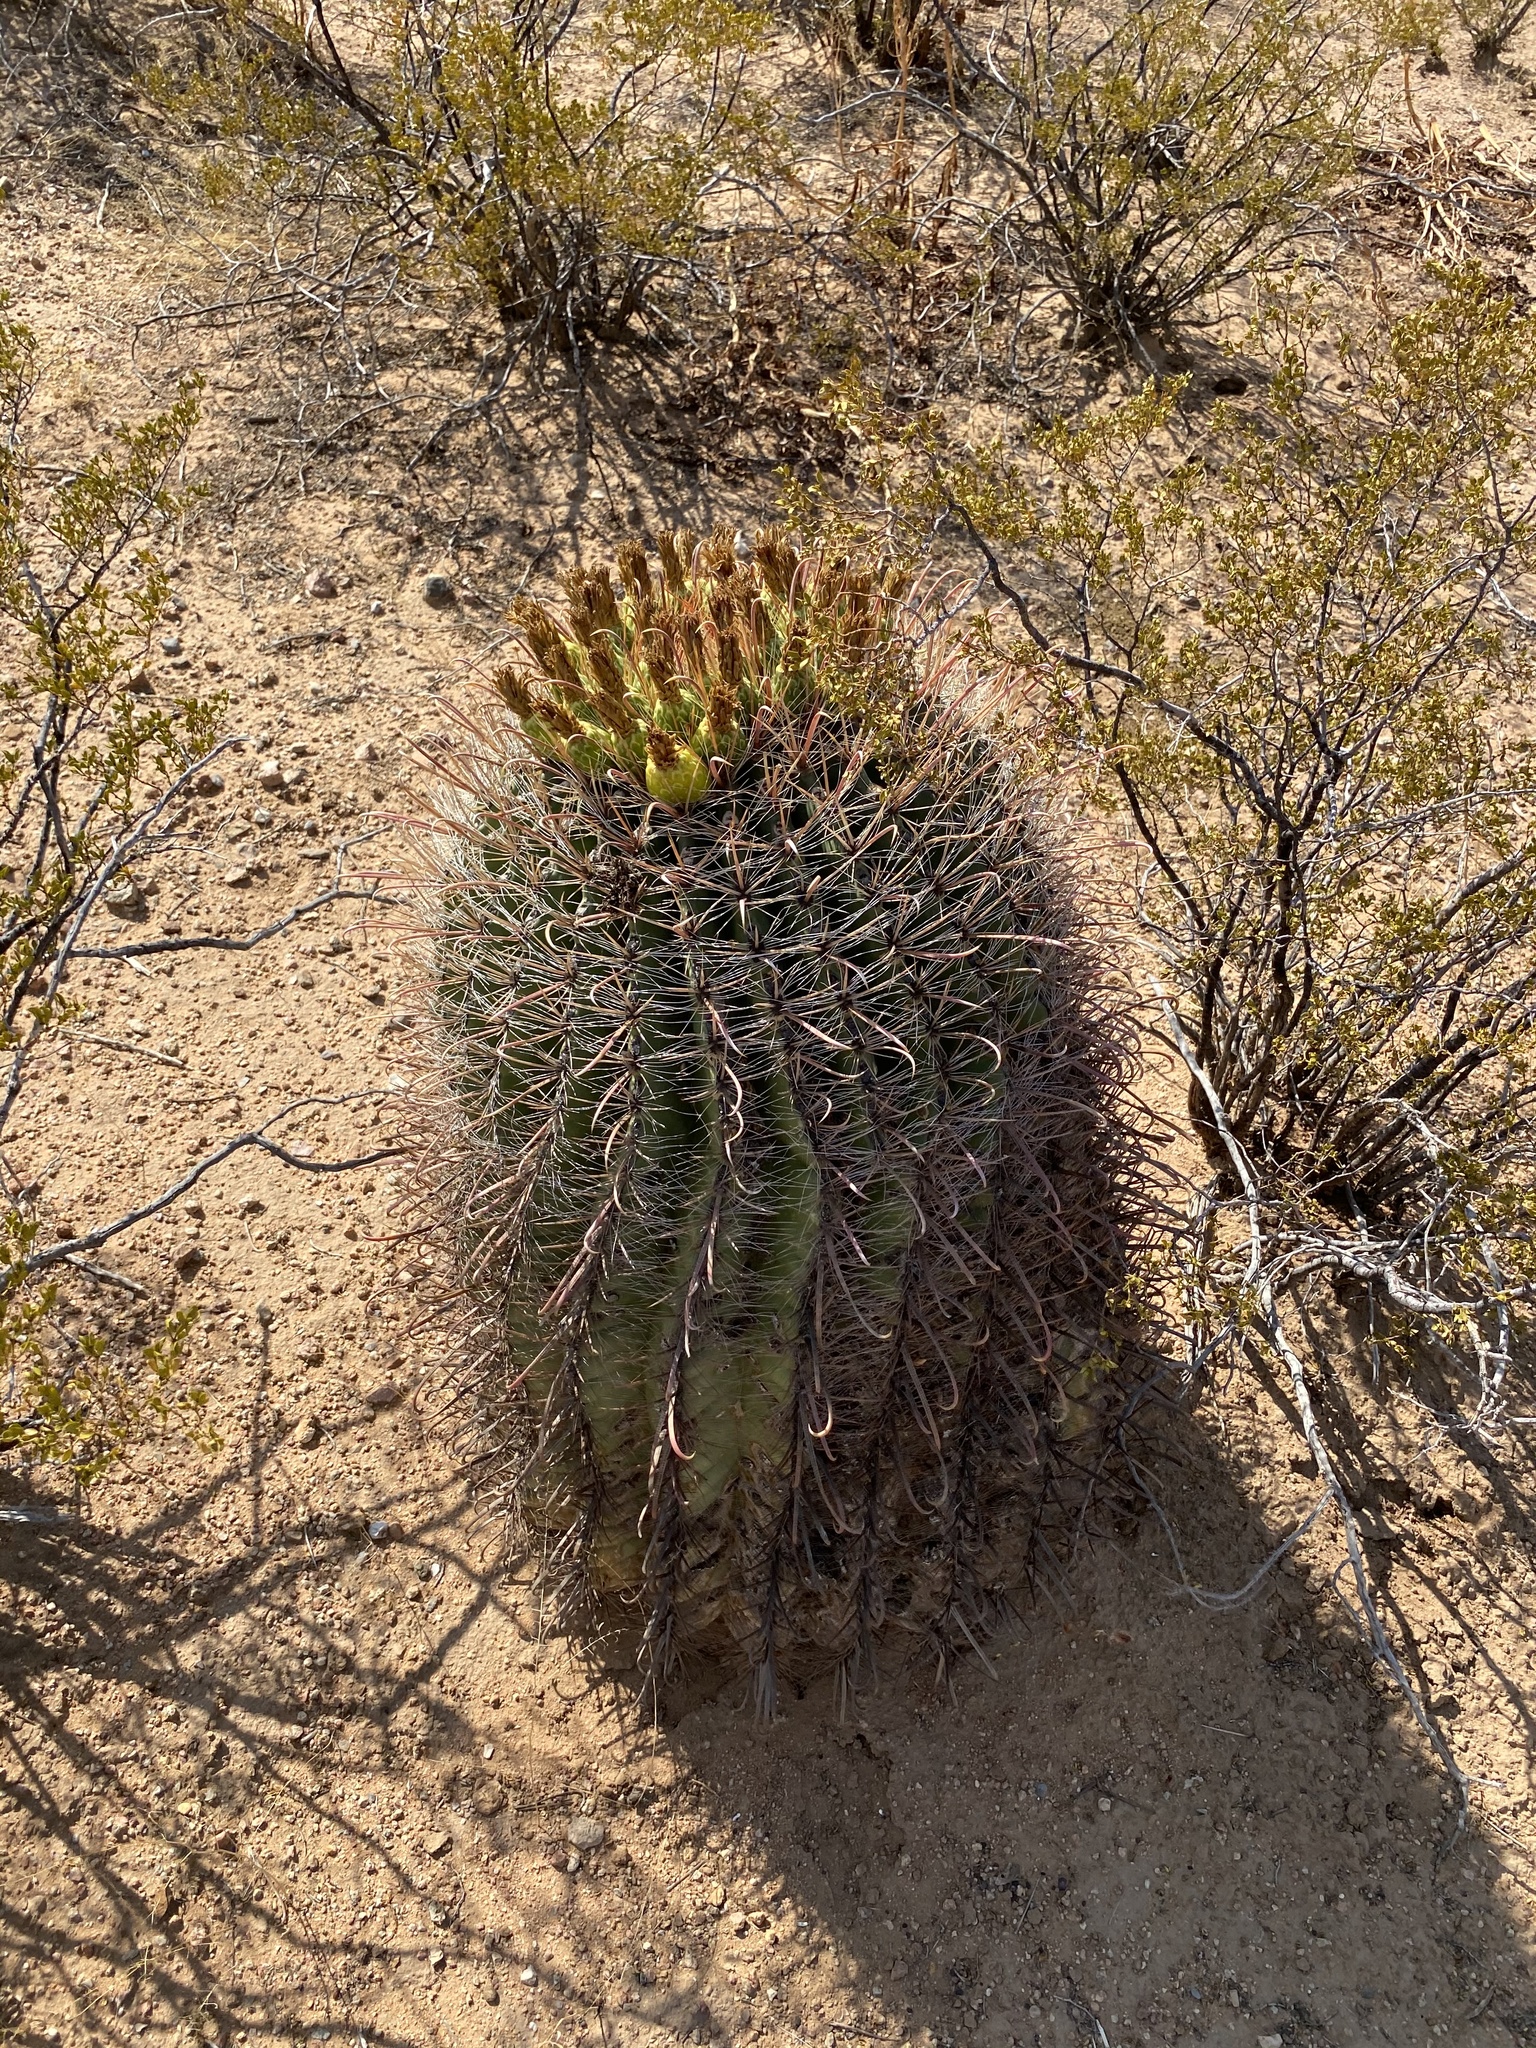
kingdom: Plantae
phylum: Tracheophyta
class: Magnoliopsida
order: Caryophyllales
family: Cactaceae
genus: Ferocactus
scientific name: Ferocactus wislizeni
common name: Candy barrel cactus
